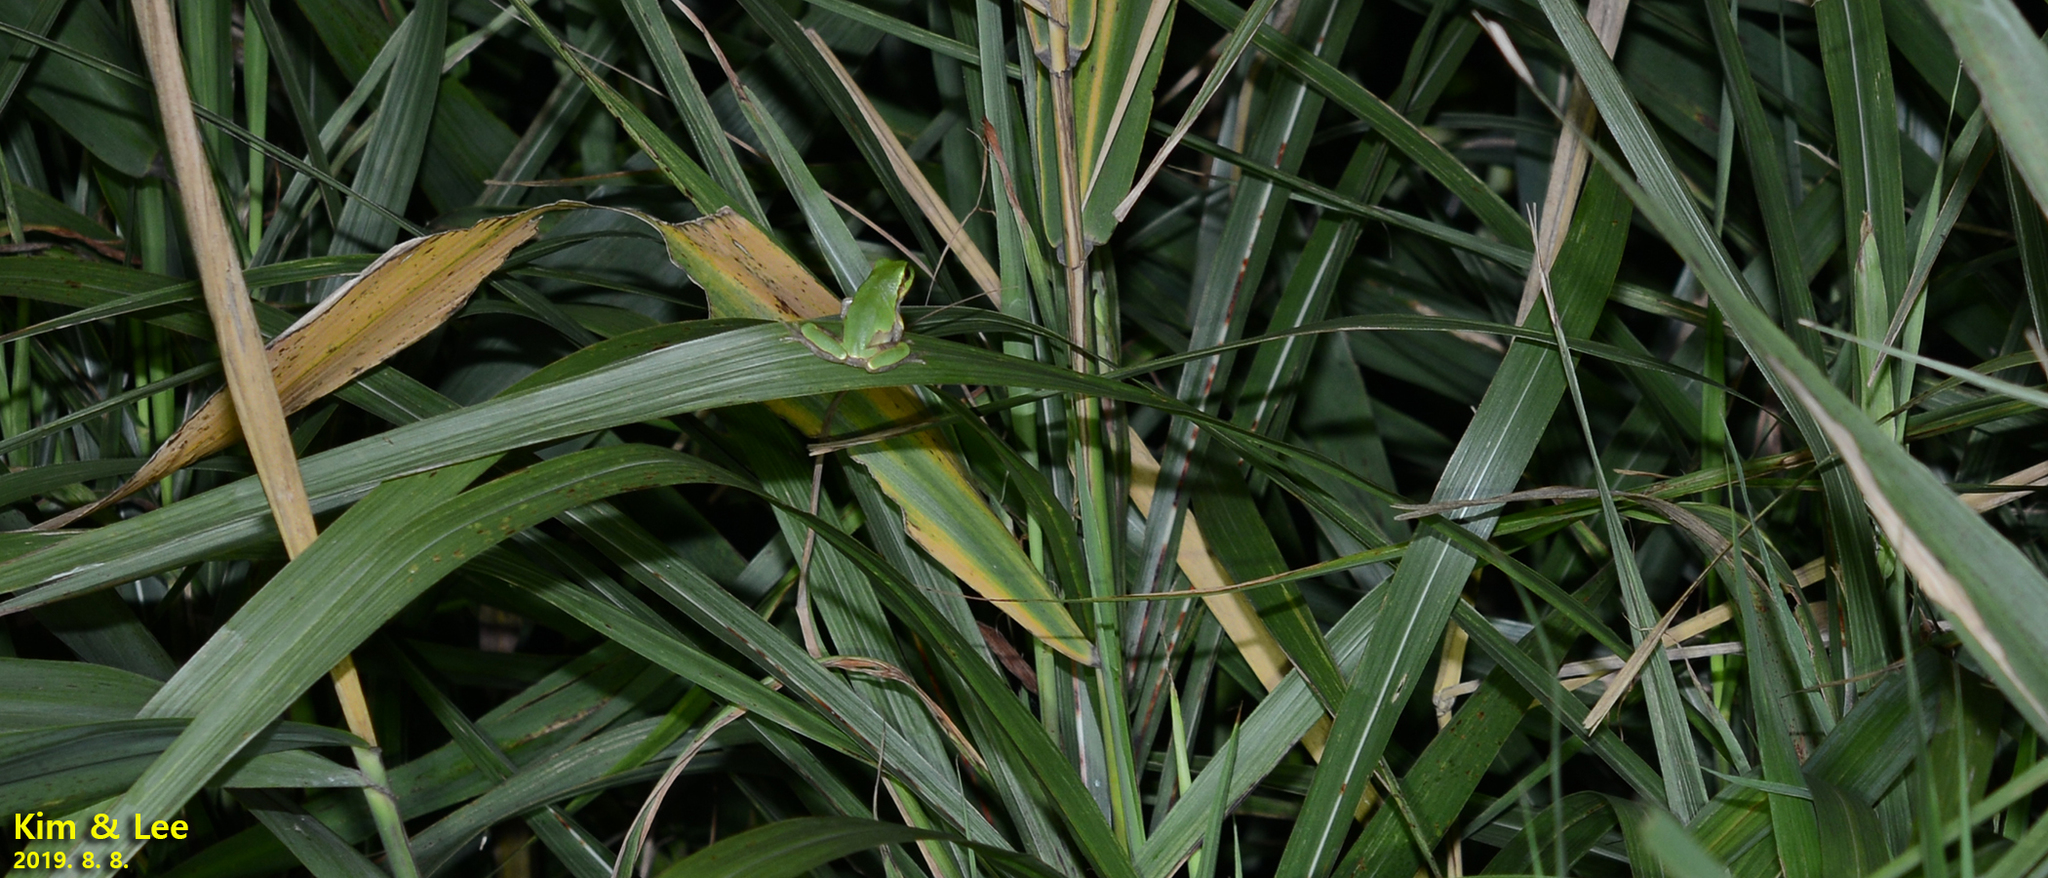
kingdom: Animalia
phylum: Chordata
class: Amphibia
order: Anura
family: Hylidae
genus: Dryophytes
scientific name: Dryophytes japonicus
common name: Japanese treefrog
